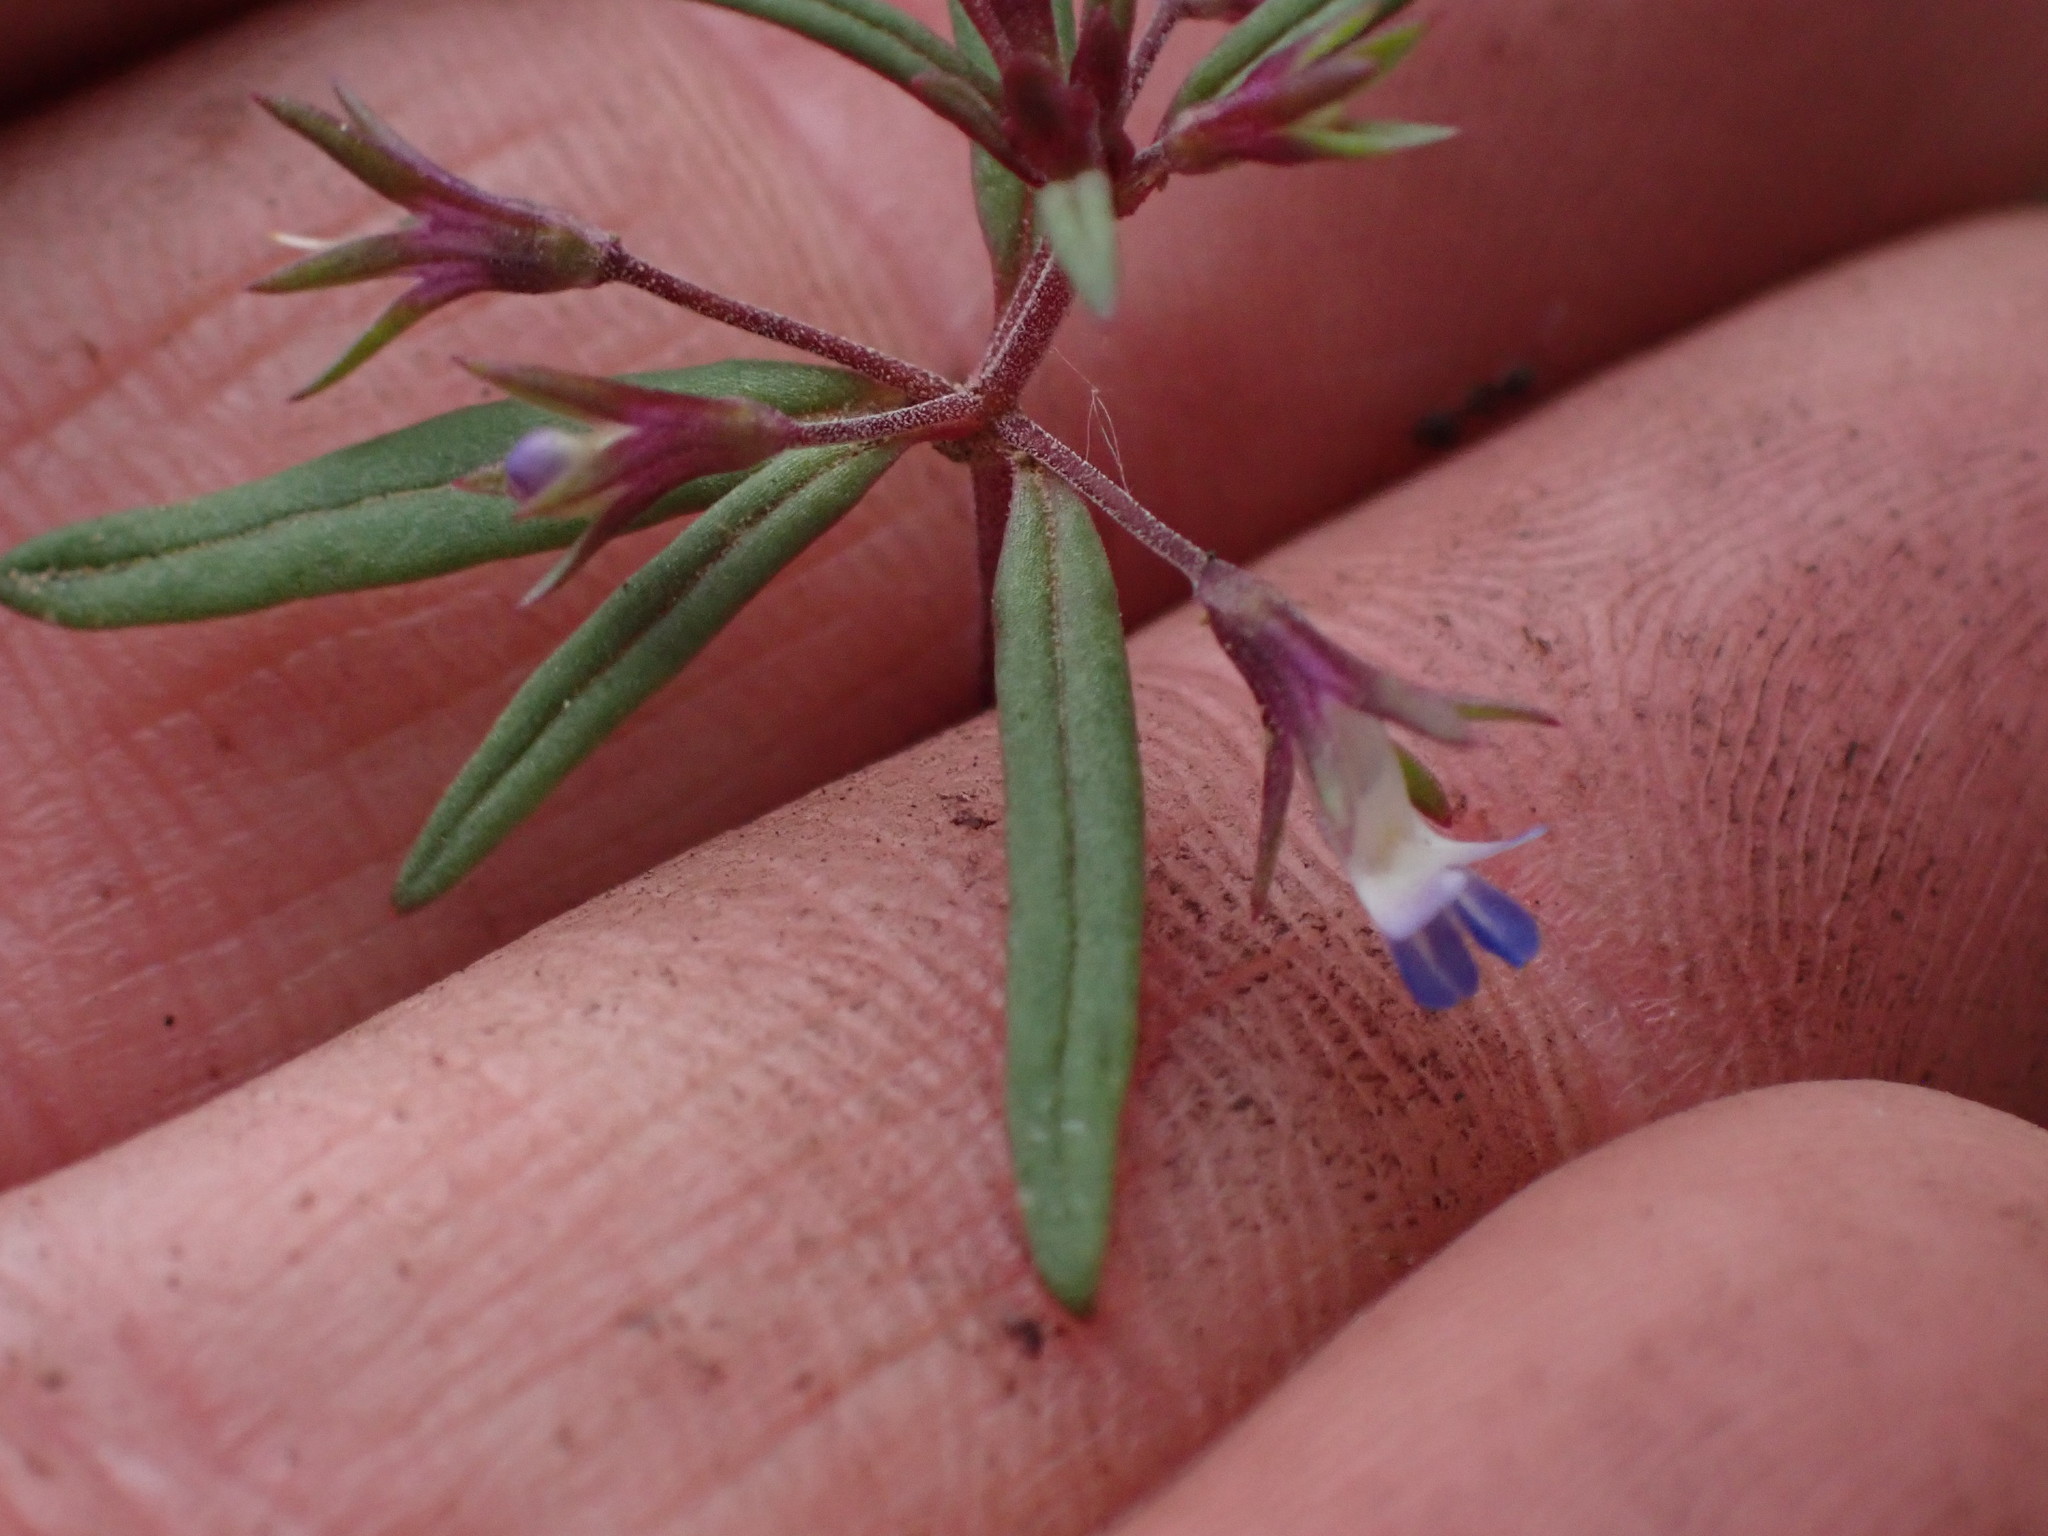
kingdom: Plantae
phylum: Tracheophyta
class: Magnoliopsida
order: Lamiales
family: Plantaginaceae
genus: Collinsia
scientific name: Collinsia parviflora
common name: Blue-lips
